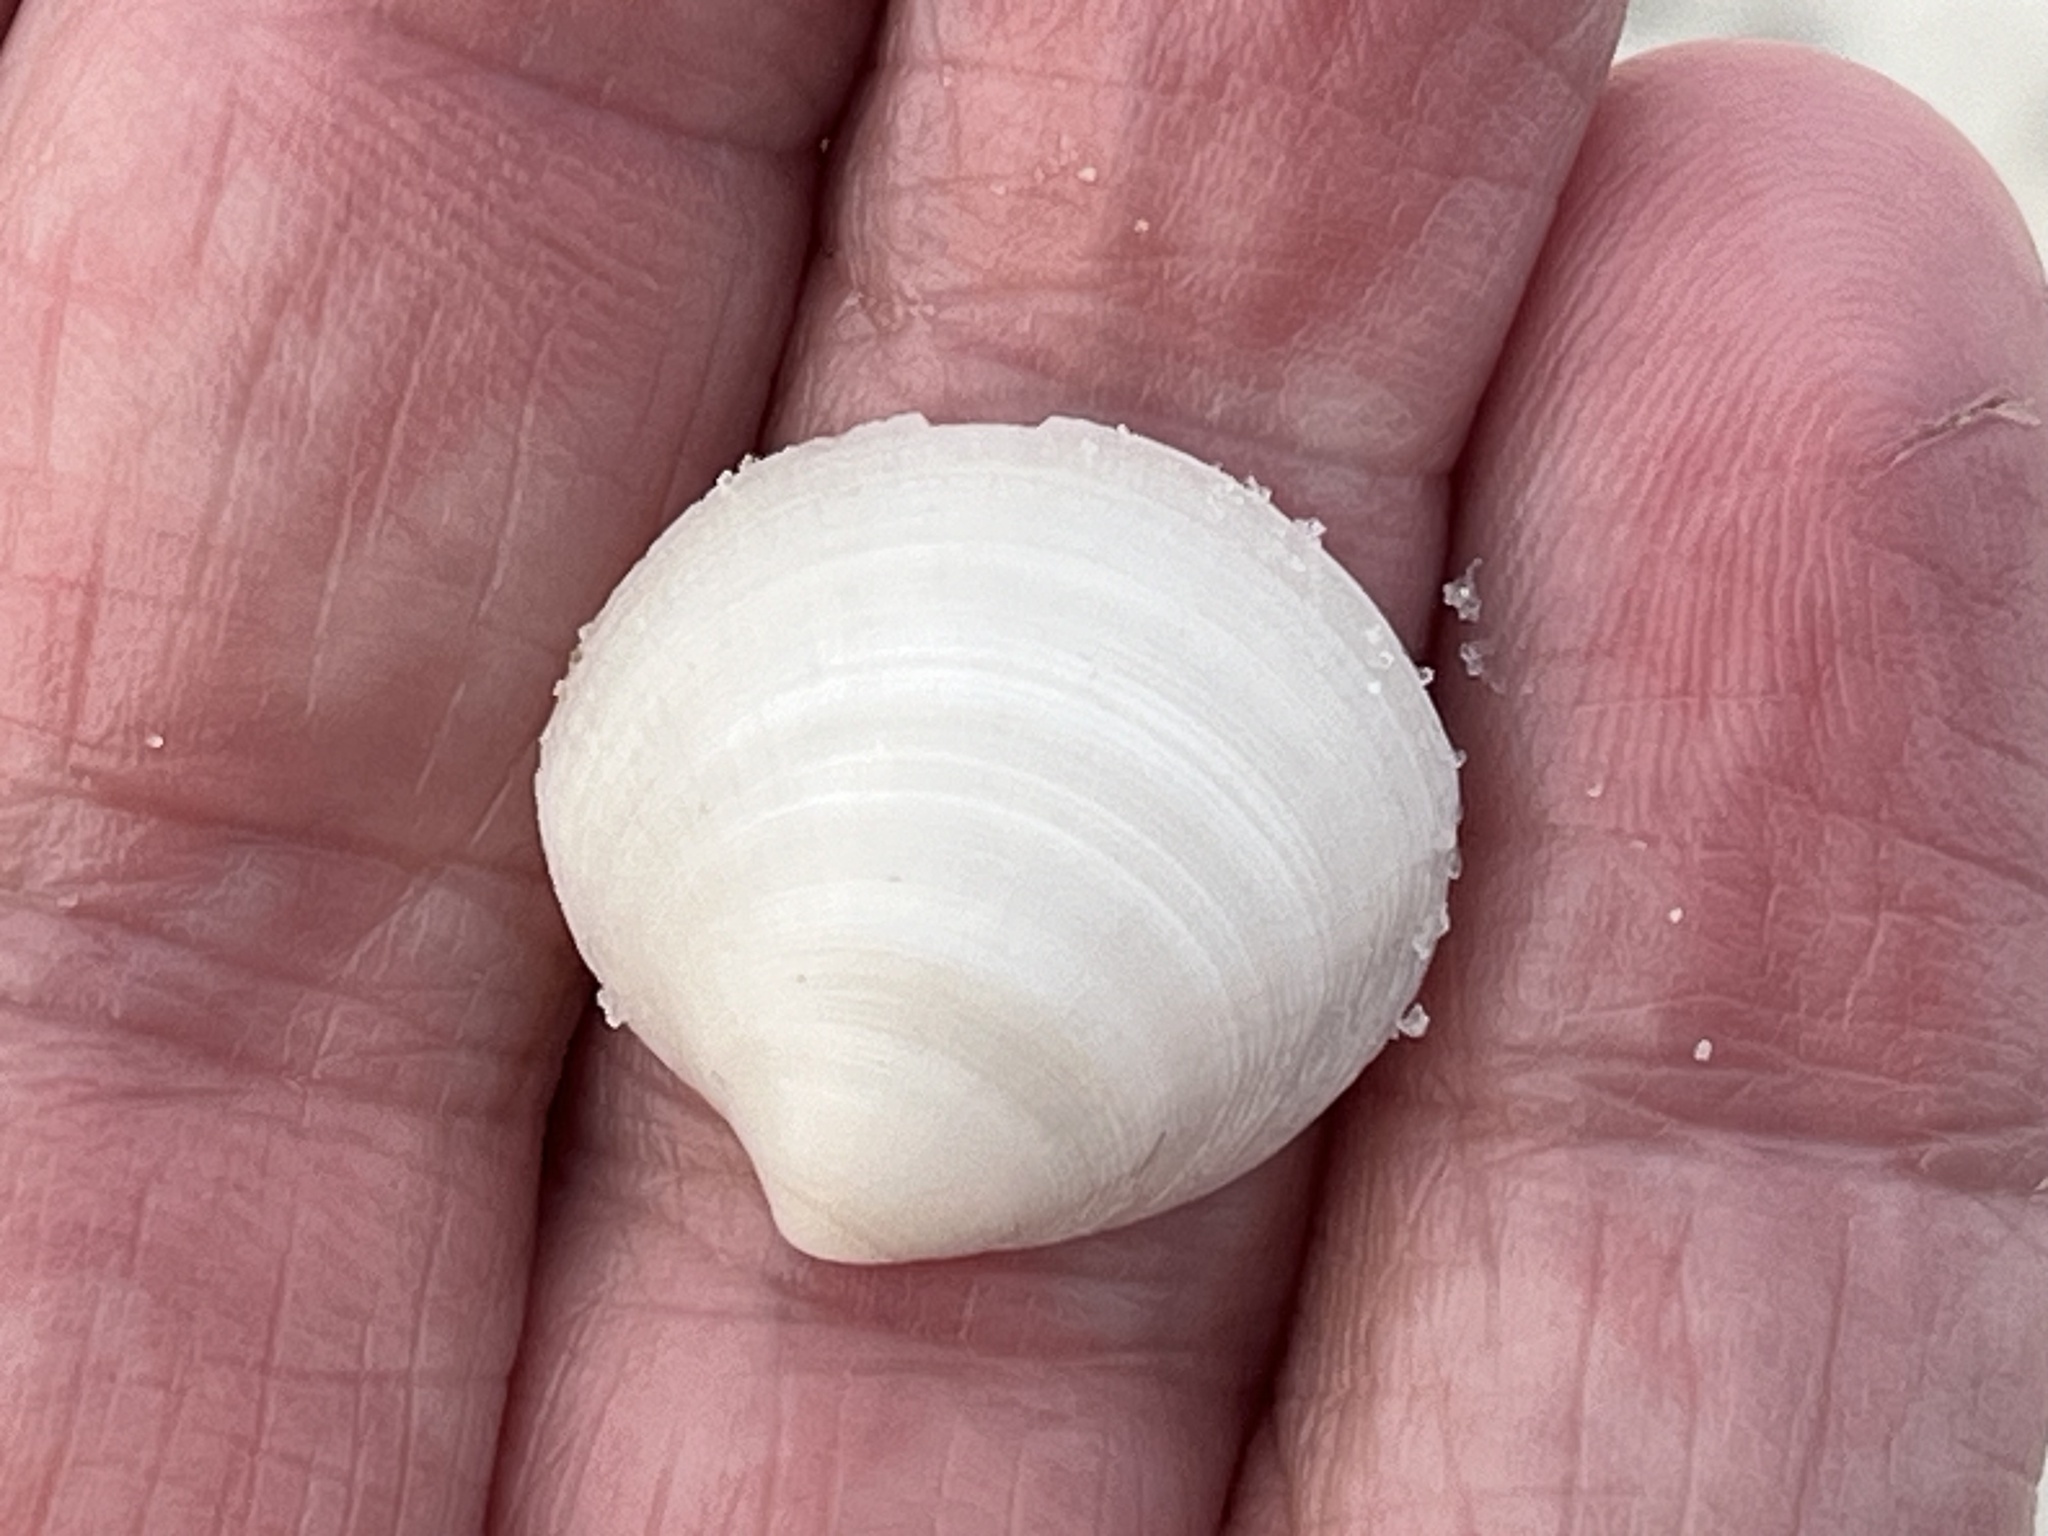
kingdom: Animalia
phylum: Mollusca
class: Bivalvia
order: Lucinida
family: Lucinidae
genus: Callucina
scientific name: Callucina keenae
